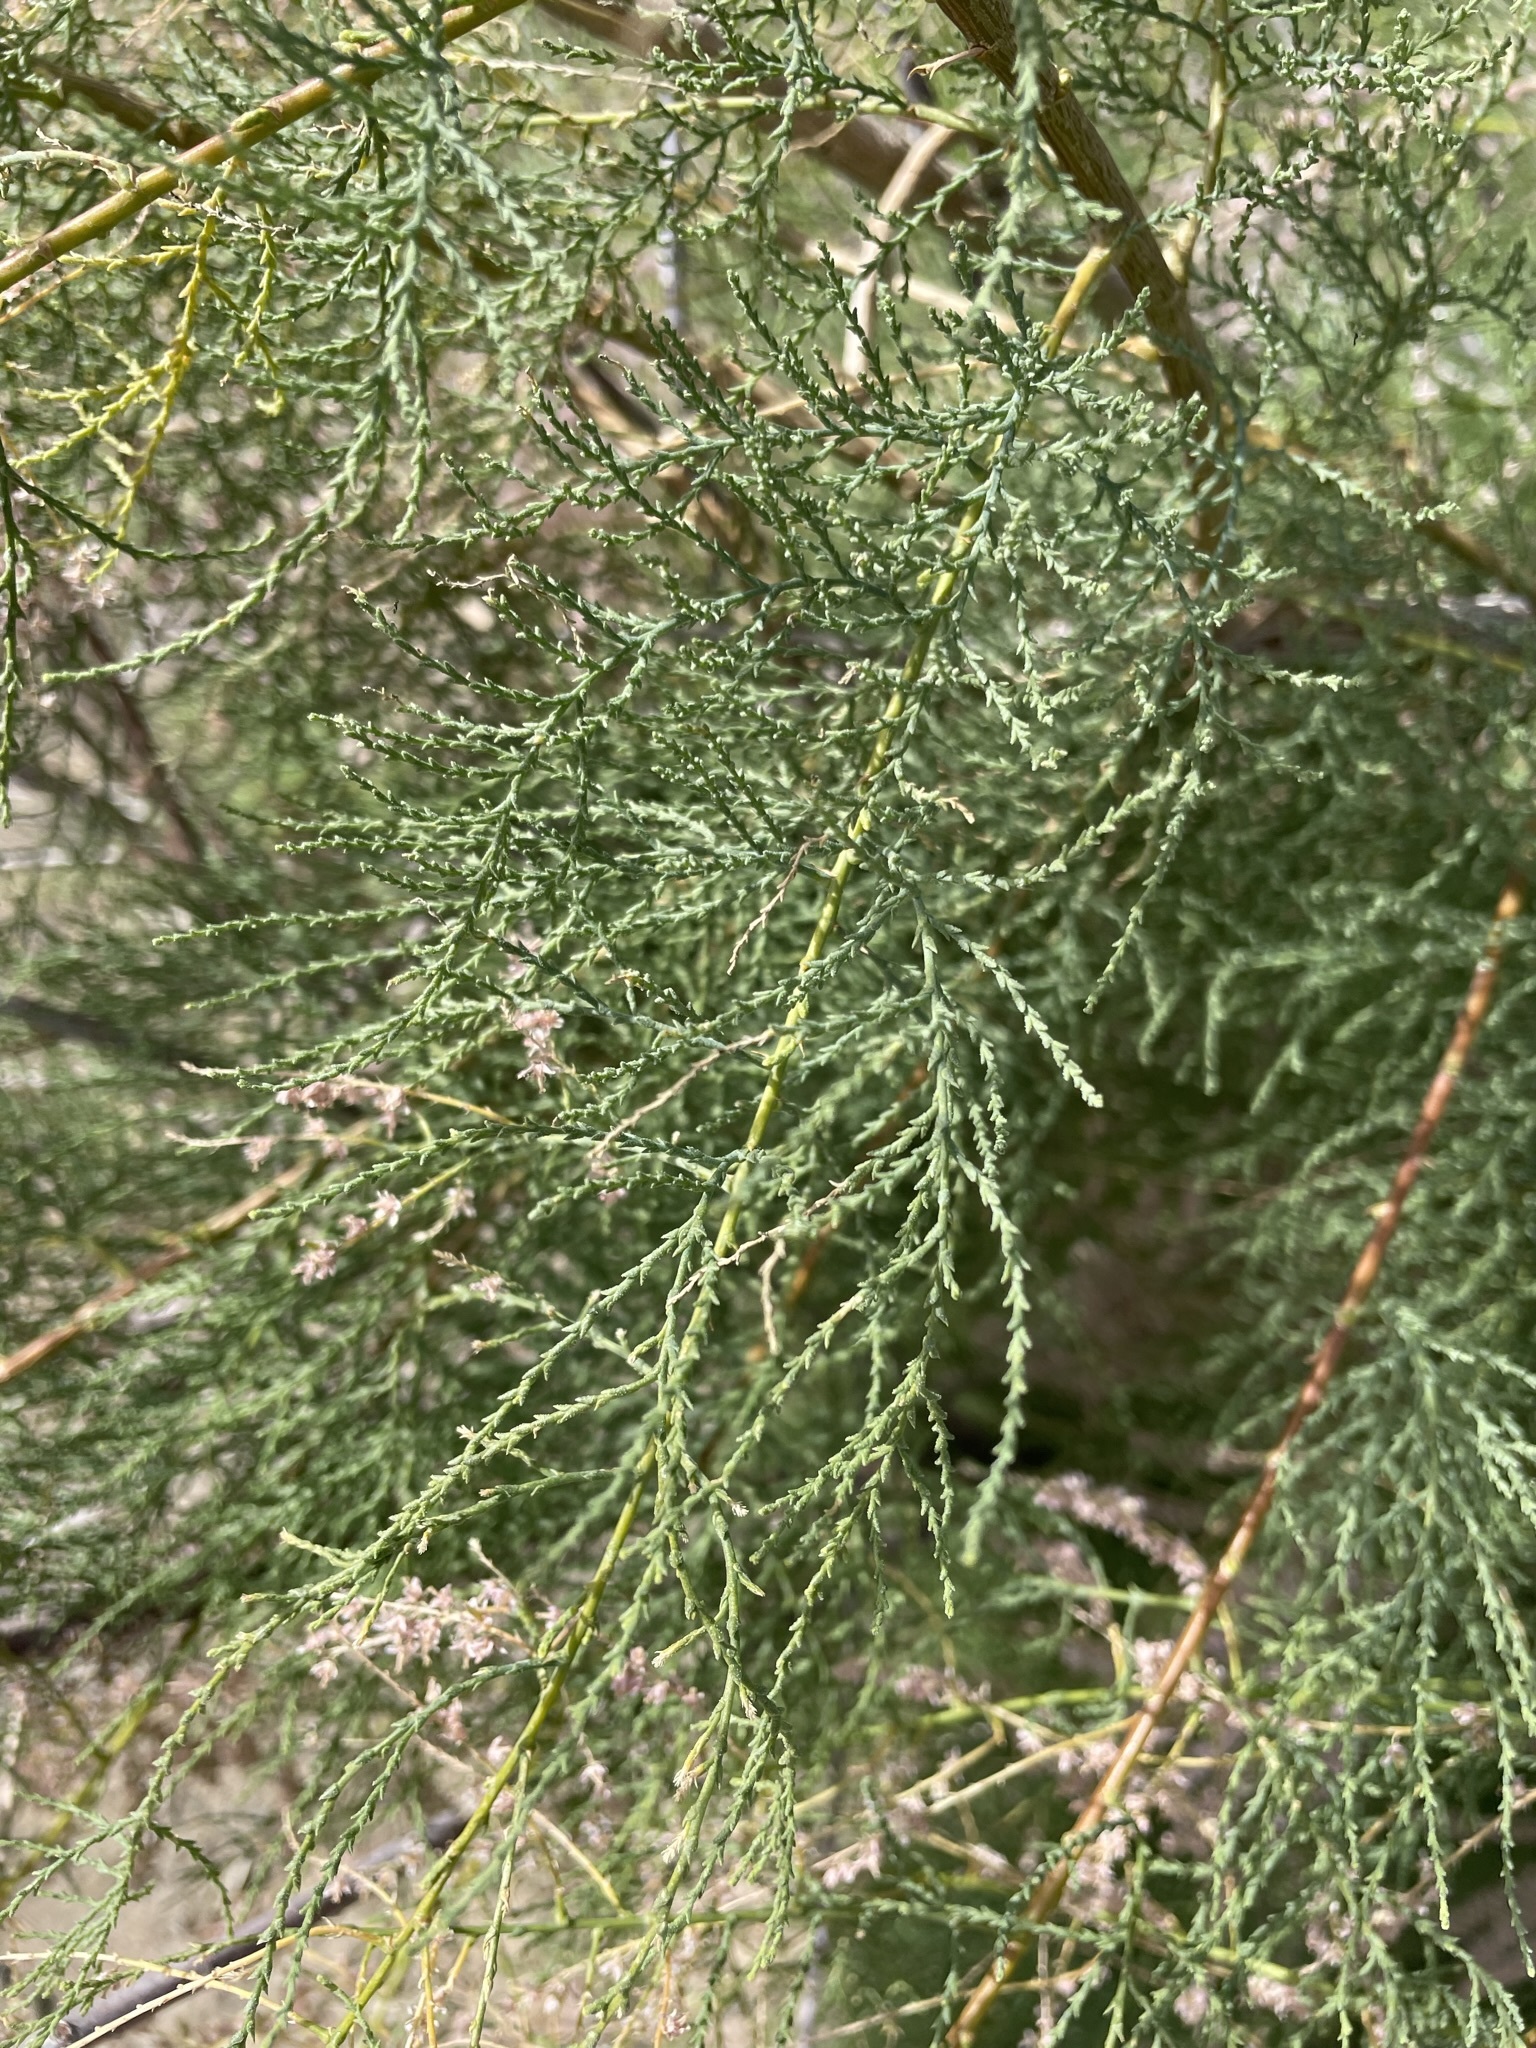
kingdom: Plantae
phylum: Tracheophyta
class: Magnoliopsida
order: Caryophyllales
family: Tamaricaceae
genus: Tamarix
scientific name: Tamarix ramosissima
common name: Pink tamarisk
